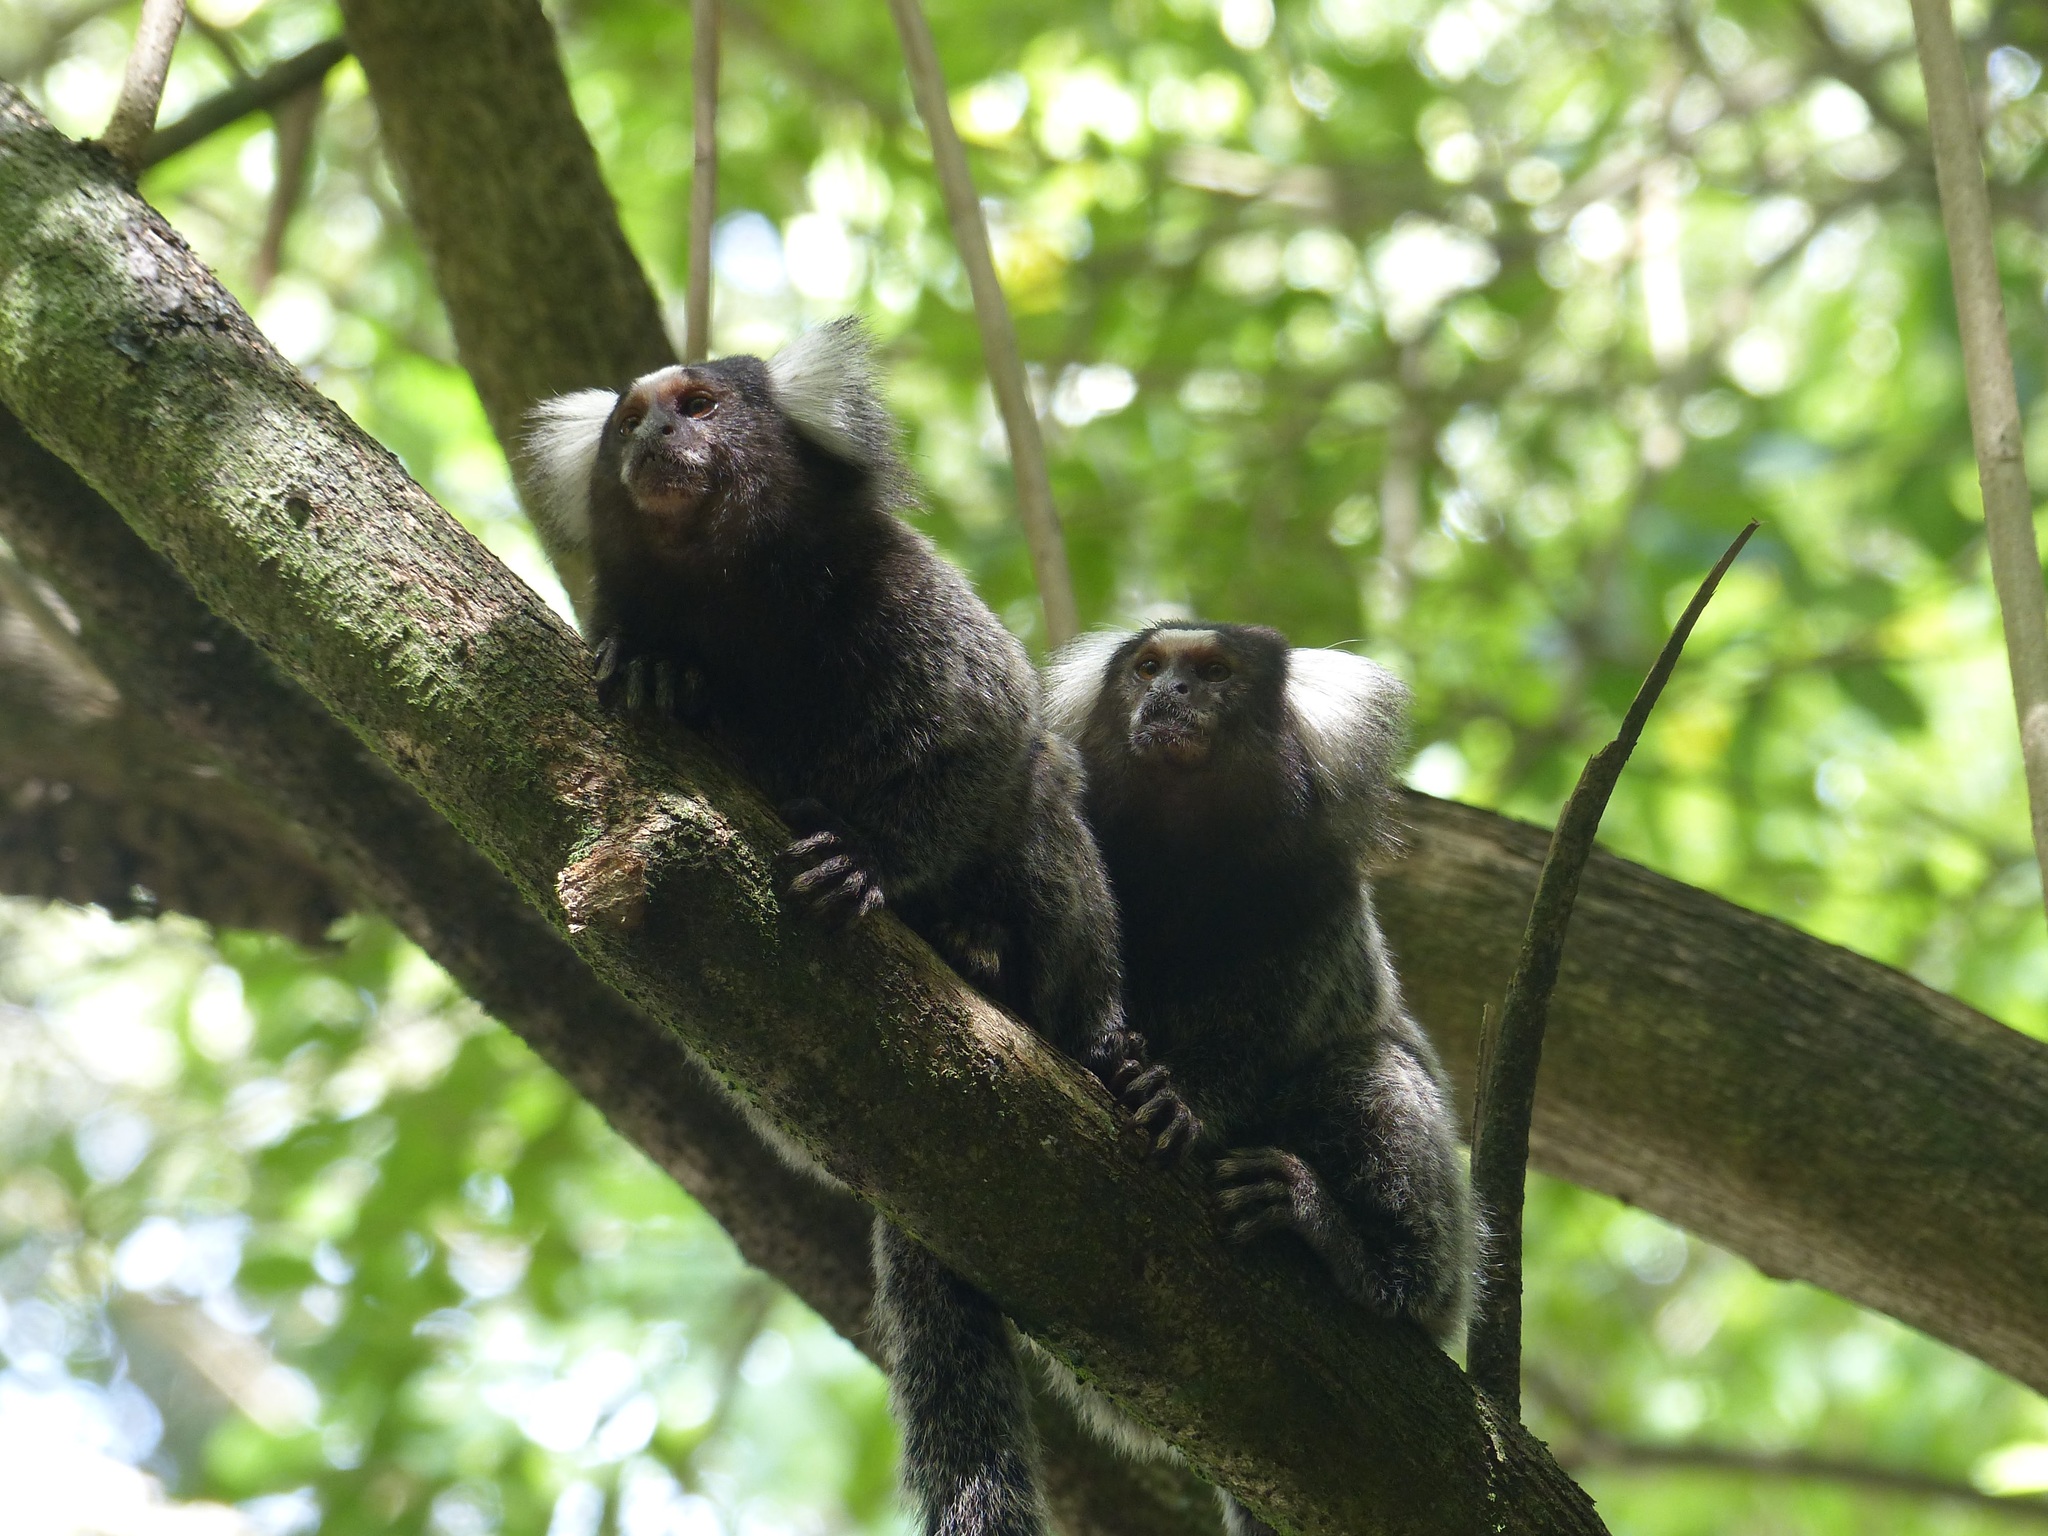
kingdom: Animalia
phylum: Chordata
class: Mammalia
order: Primates
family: Callitrichidae
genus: Callithrix
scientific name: Callithrix jacchus
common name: Common marmoset
